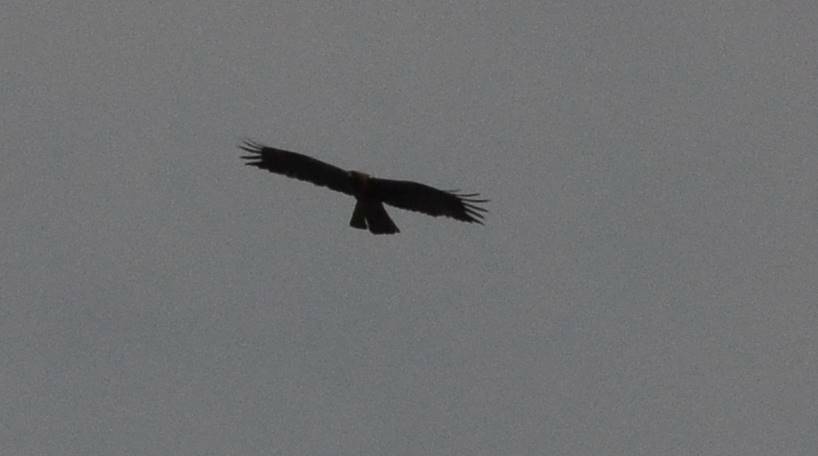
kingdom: Animalia
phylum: Chordata
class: Aves
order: Accipitriformes
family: Accipitridae
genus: Hieraaetus
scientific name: Hieraaetus pennatus
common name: Booted eagle
